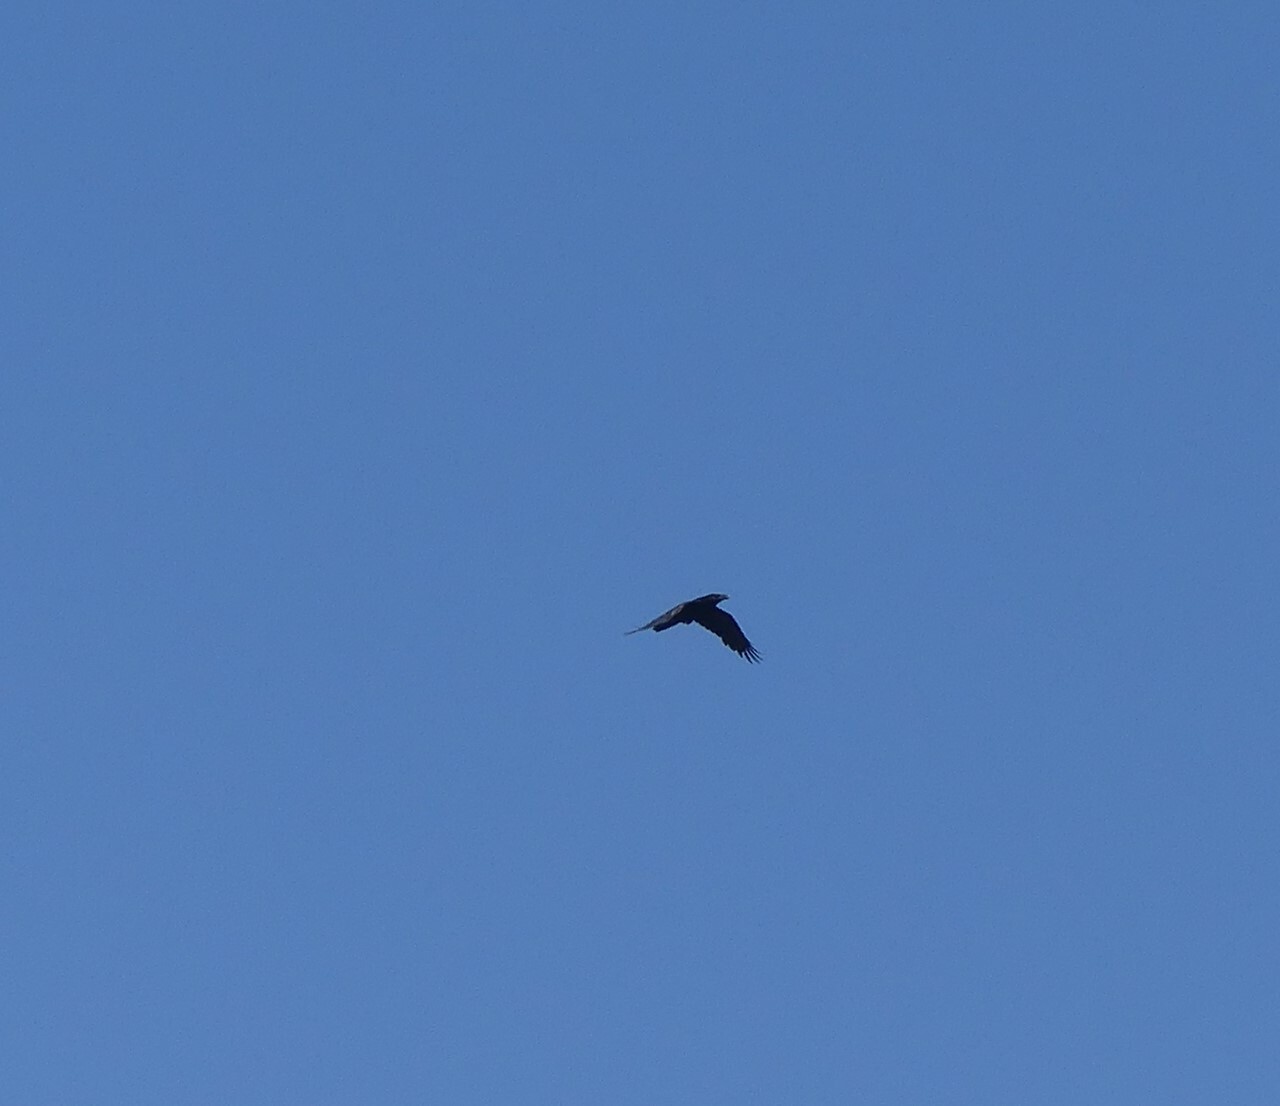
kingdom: Animalia
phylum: Chordata
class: Aves
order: Passeriformes
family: Corvidae
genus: Corvus
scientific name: Corvus corax
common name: Common raven
